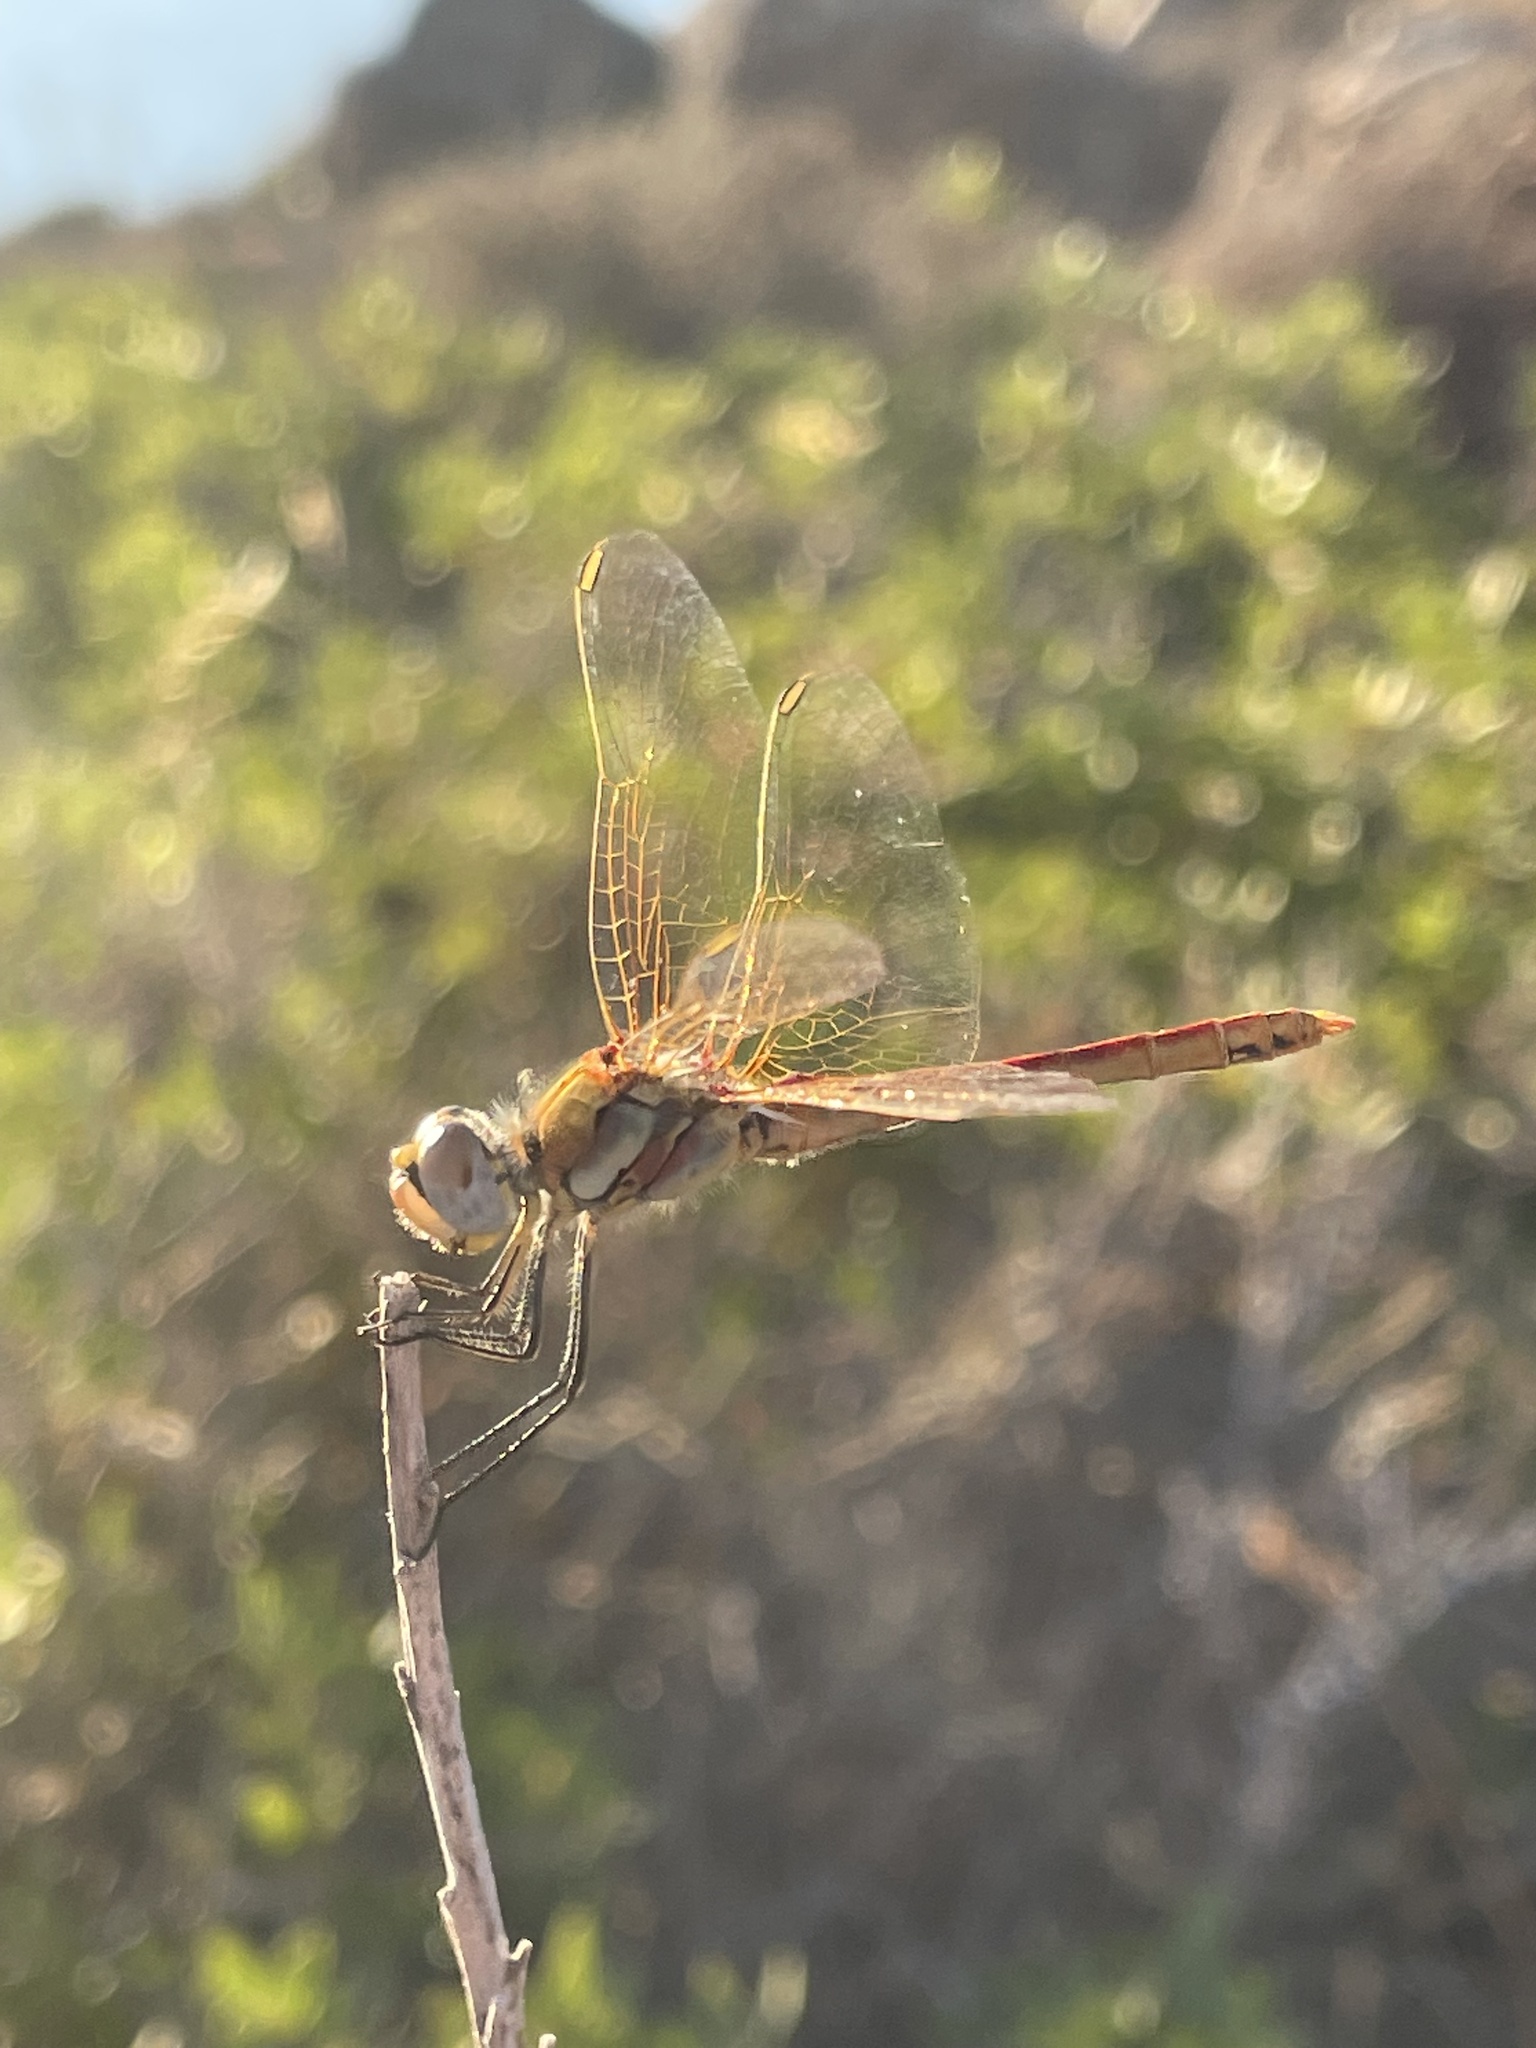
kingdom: Animalia
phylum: Arthropoda
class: Insecta
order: Odonata
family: Libellulidae
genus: Sympetrum
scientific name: Sympetrum fonscolombii
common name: Red-veined darter
